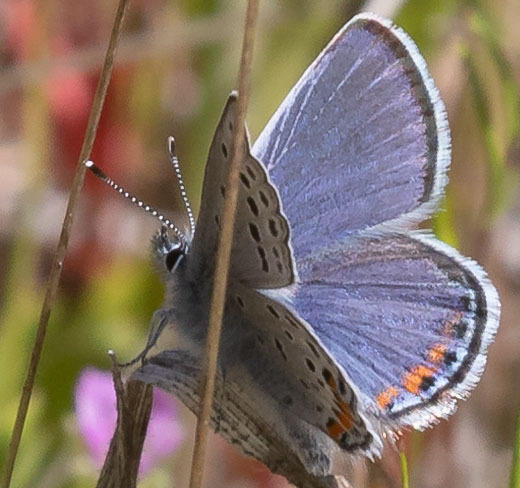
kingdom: Animalia
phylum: Arthropoda
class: Insecta
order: Lepidoptera
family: Lycaenidae
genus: Icaricia
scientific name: Icaricia acmon
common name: Acmon blue
